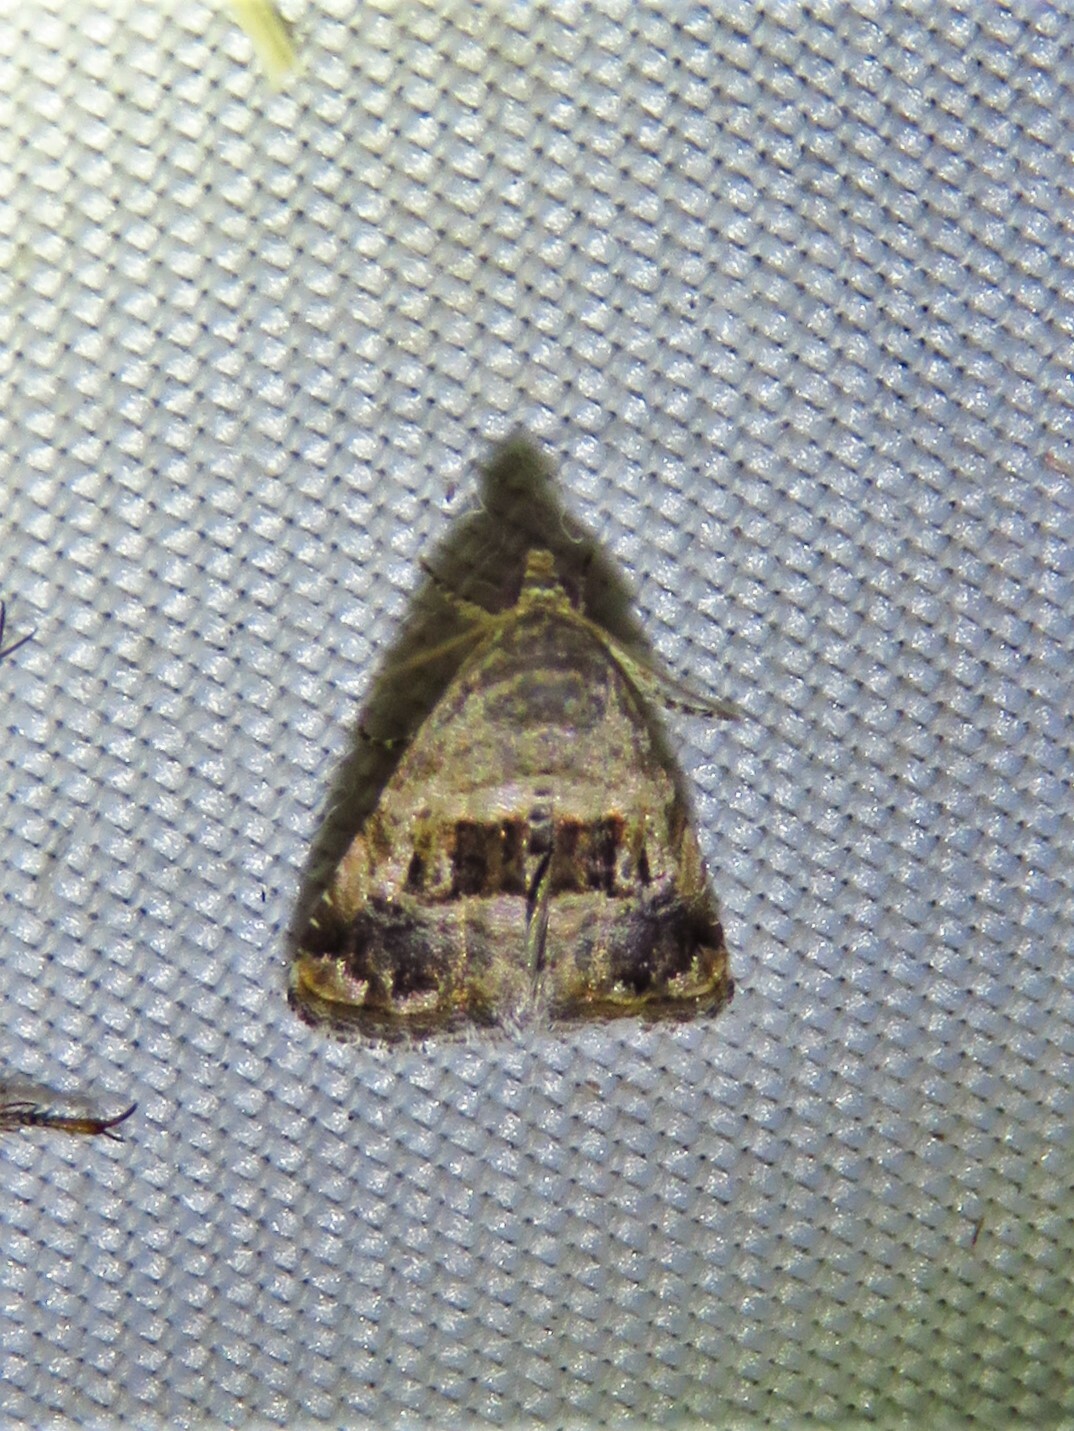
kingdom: Animalia
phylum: Arthropoda
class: Insecta
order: Lepidoptera
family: Noctuidae
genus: Tripudia
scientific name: Tripudia quadrifera
